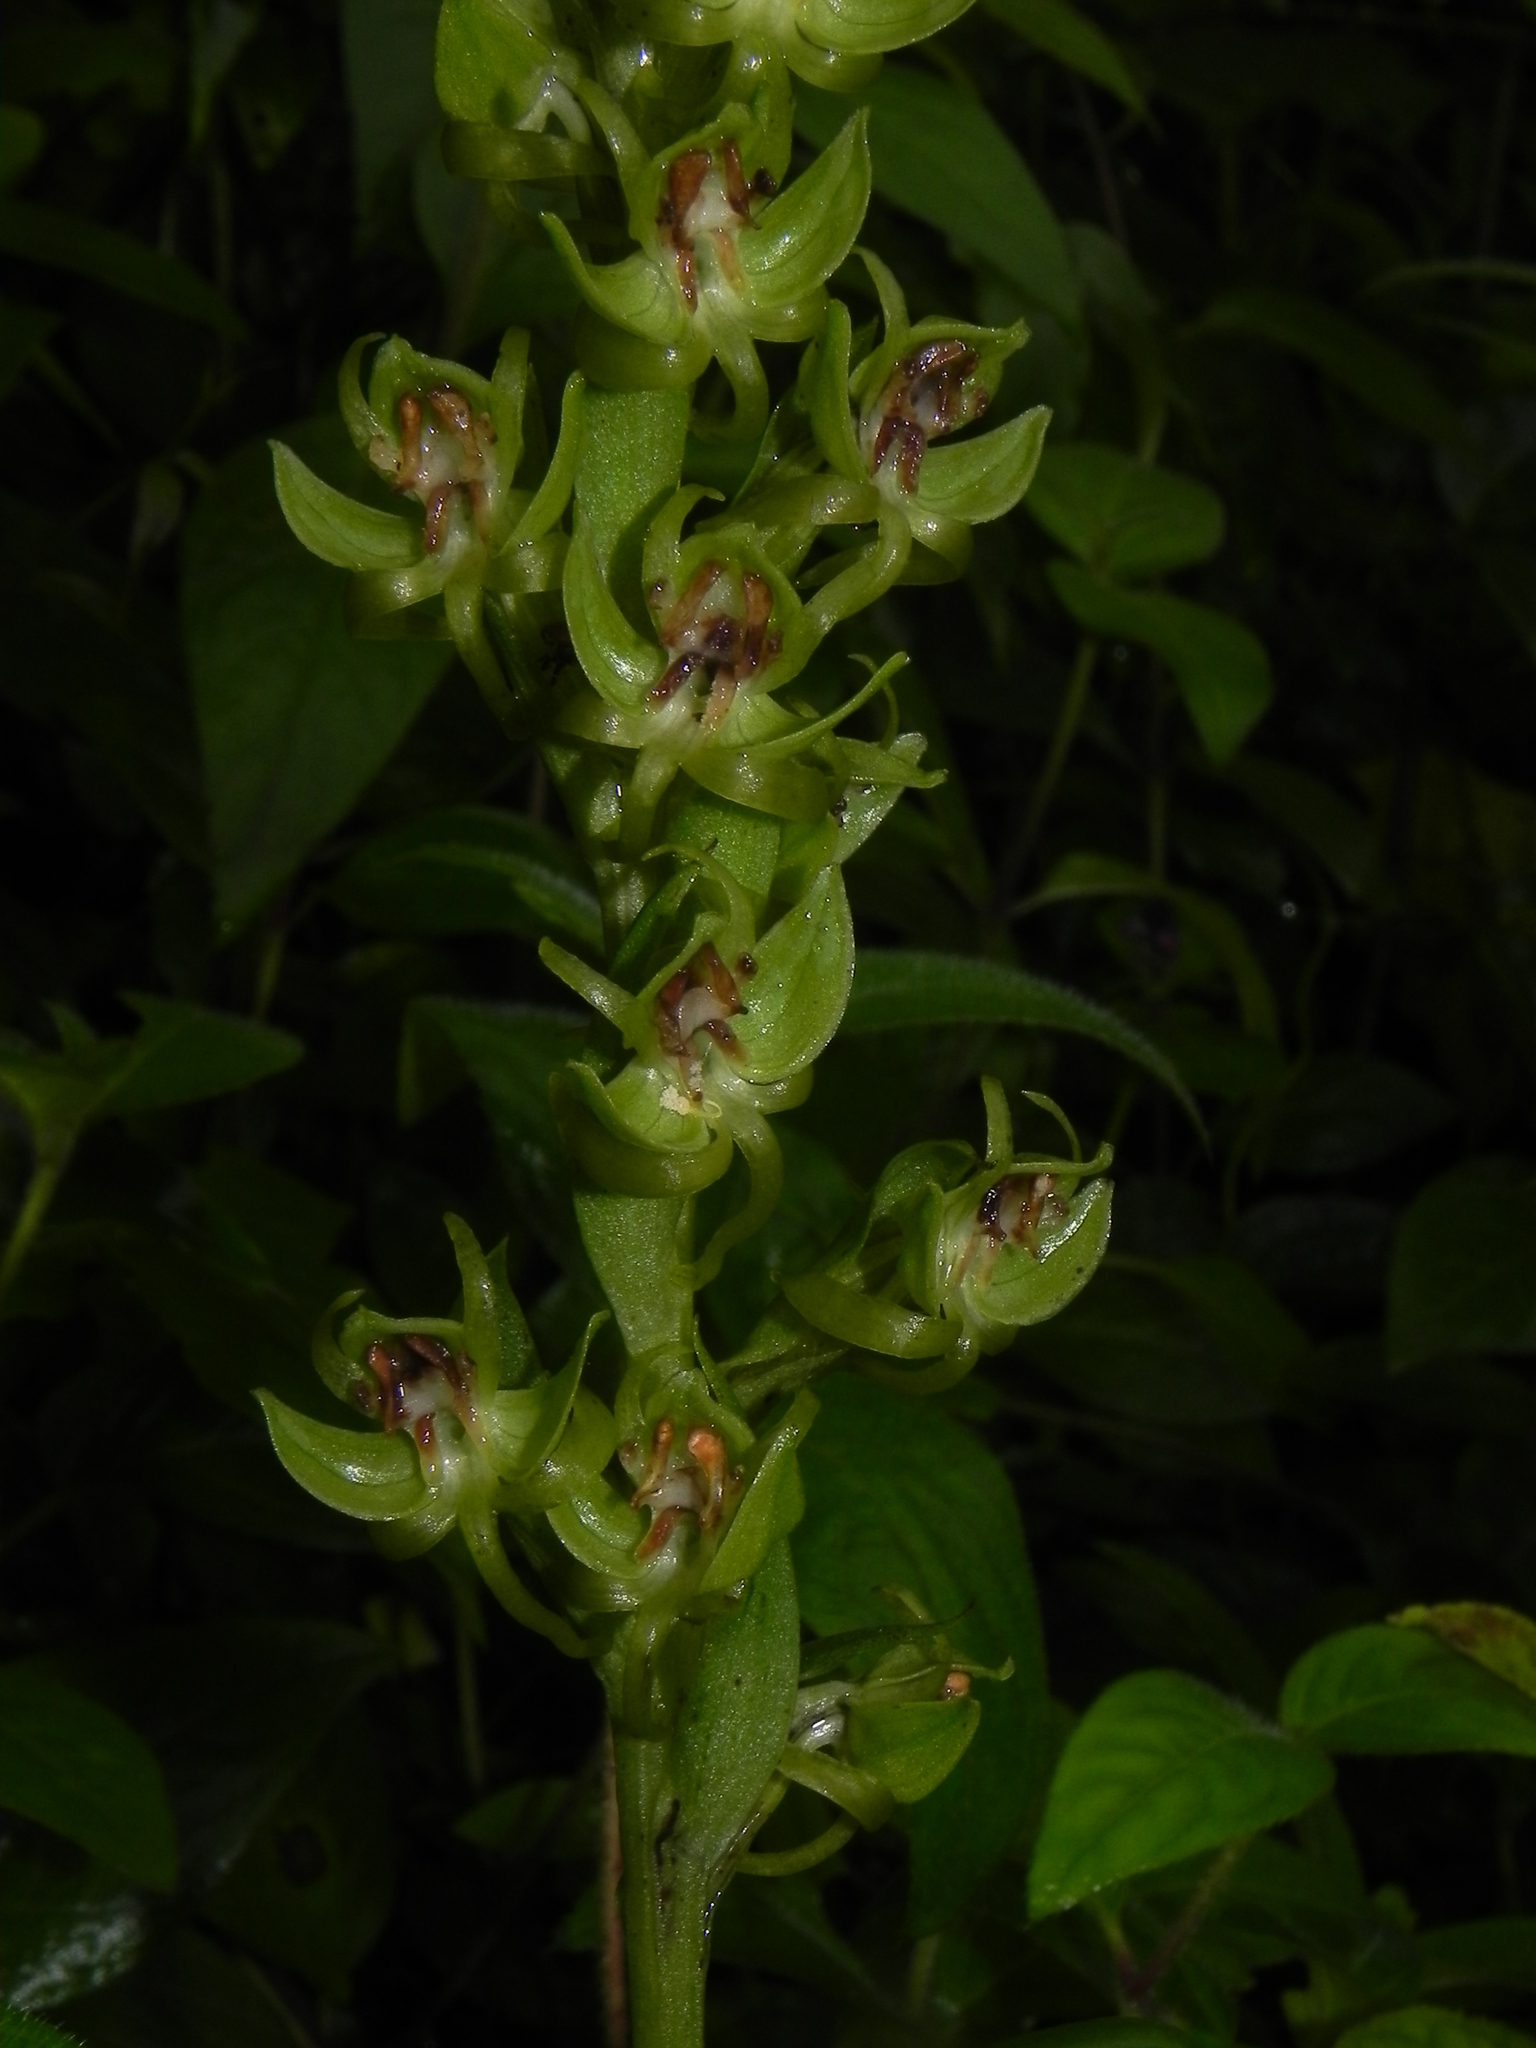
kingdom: Plantae
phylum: Tracheophyta
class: Liliopsida
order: Asparagales
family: Orchidaceae
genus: Habenaria
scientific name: Habenaria digitata
